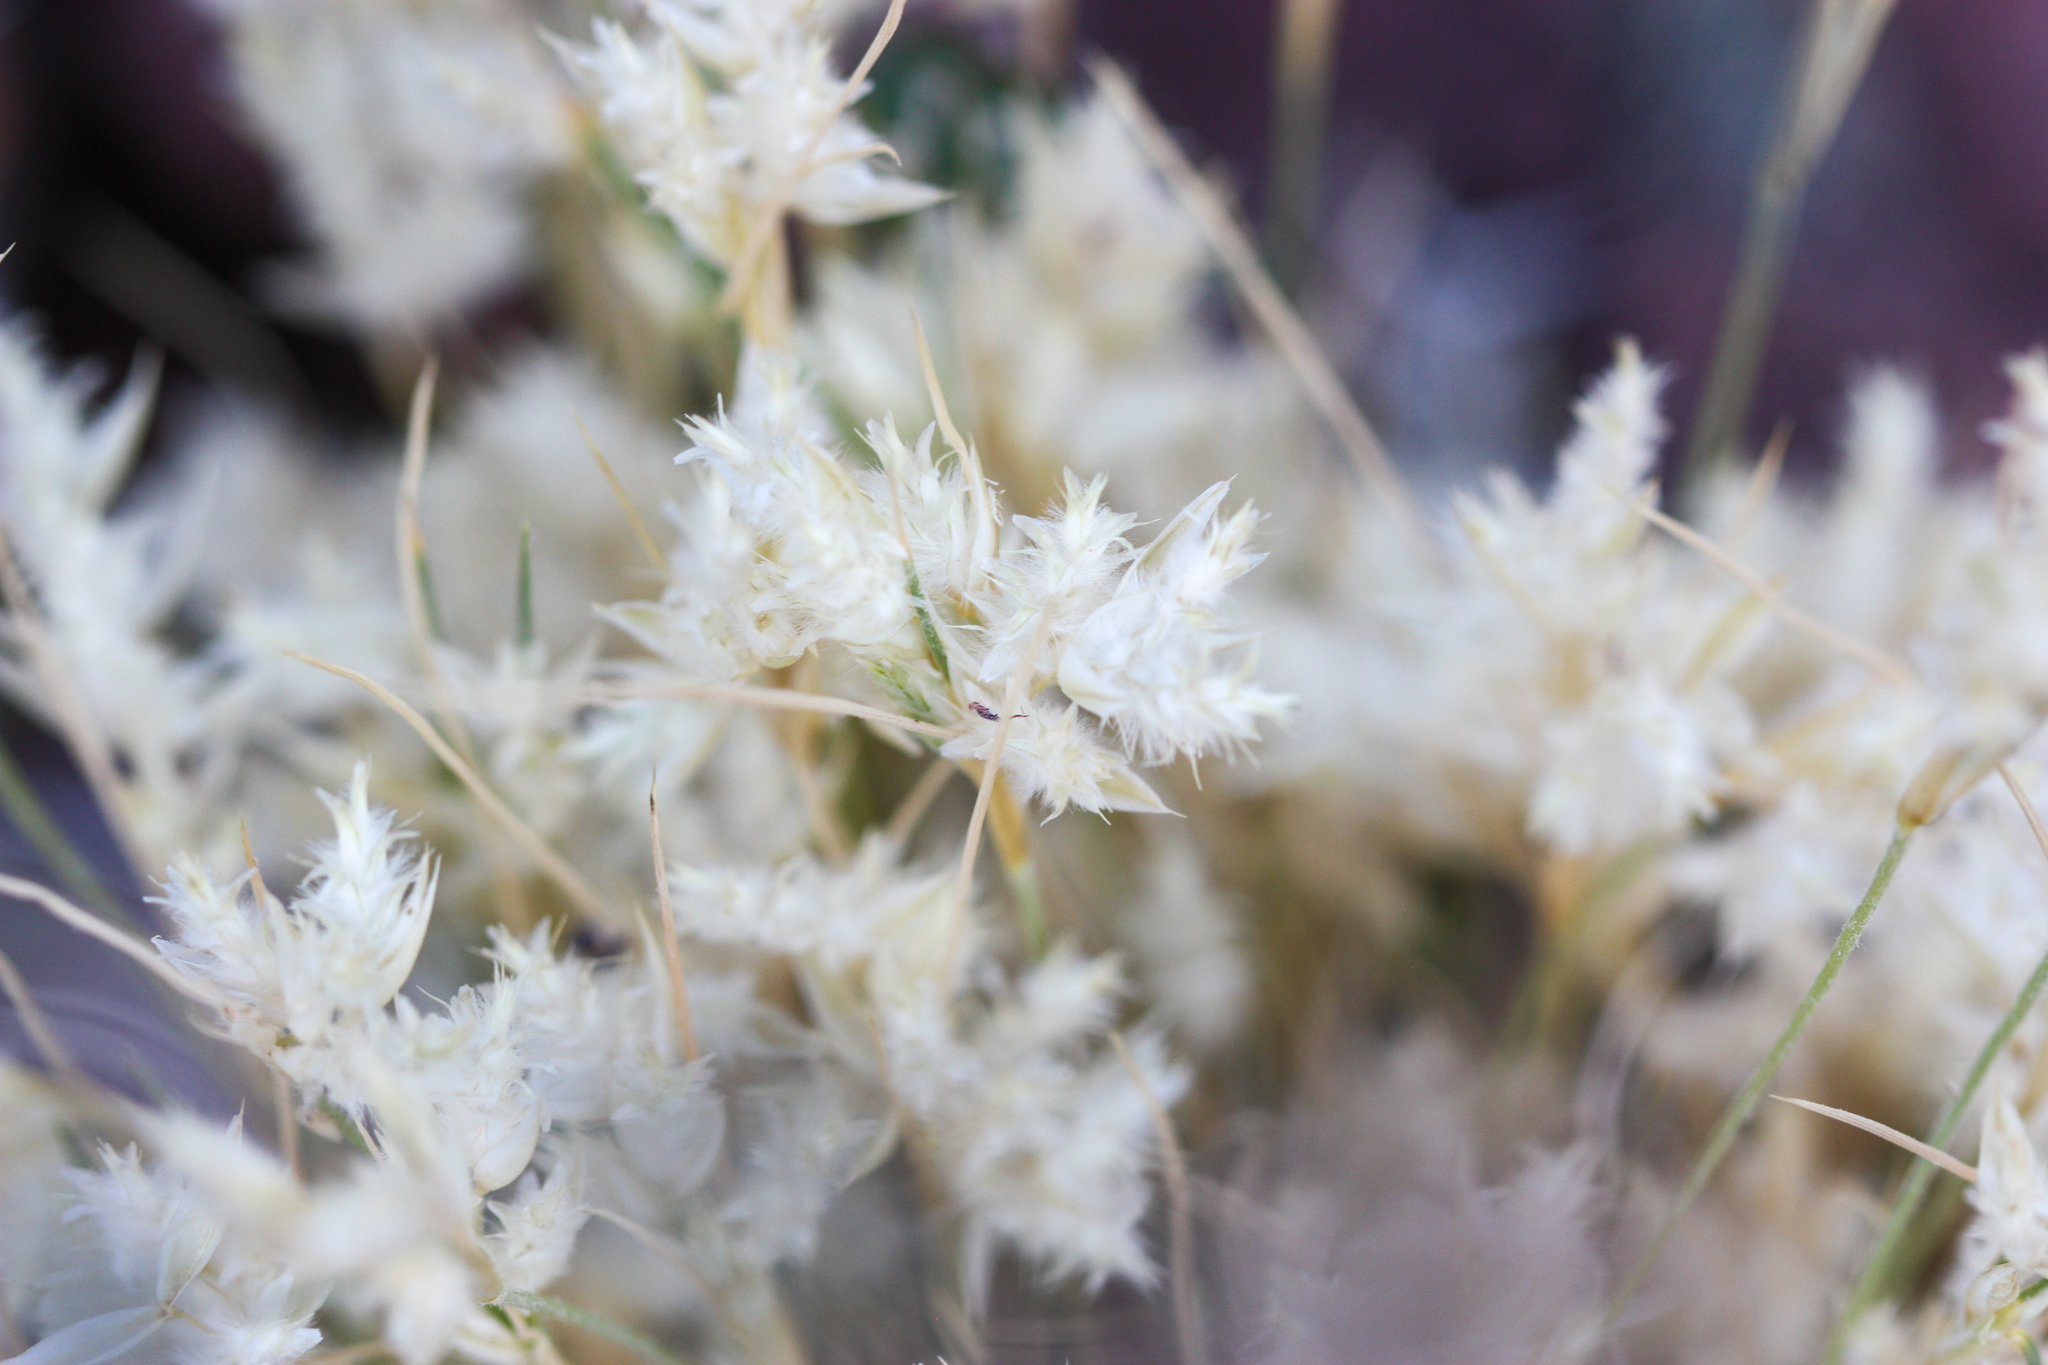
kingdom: Plantae
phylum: Tracheophyta
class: Liliopsida
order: Poales
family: Poaceae
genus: Dasyochloa
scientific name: Dasyochloa pulchella
